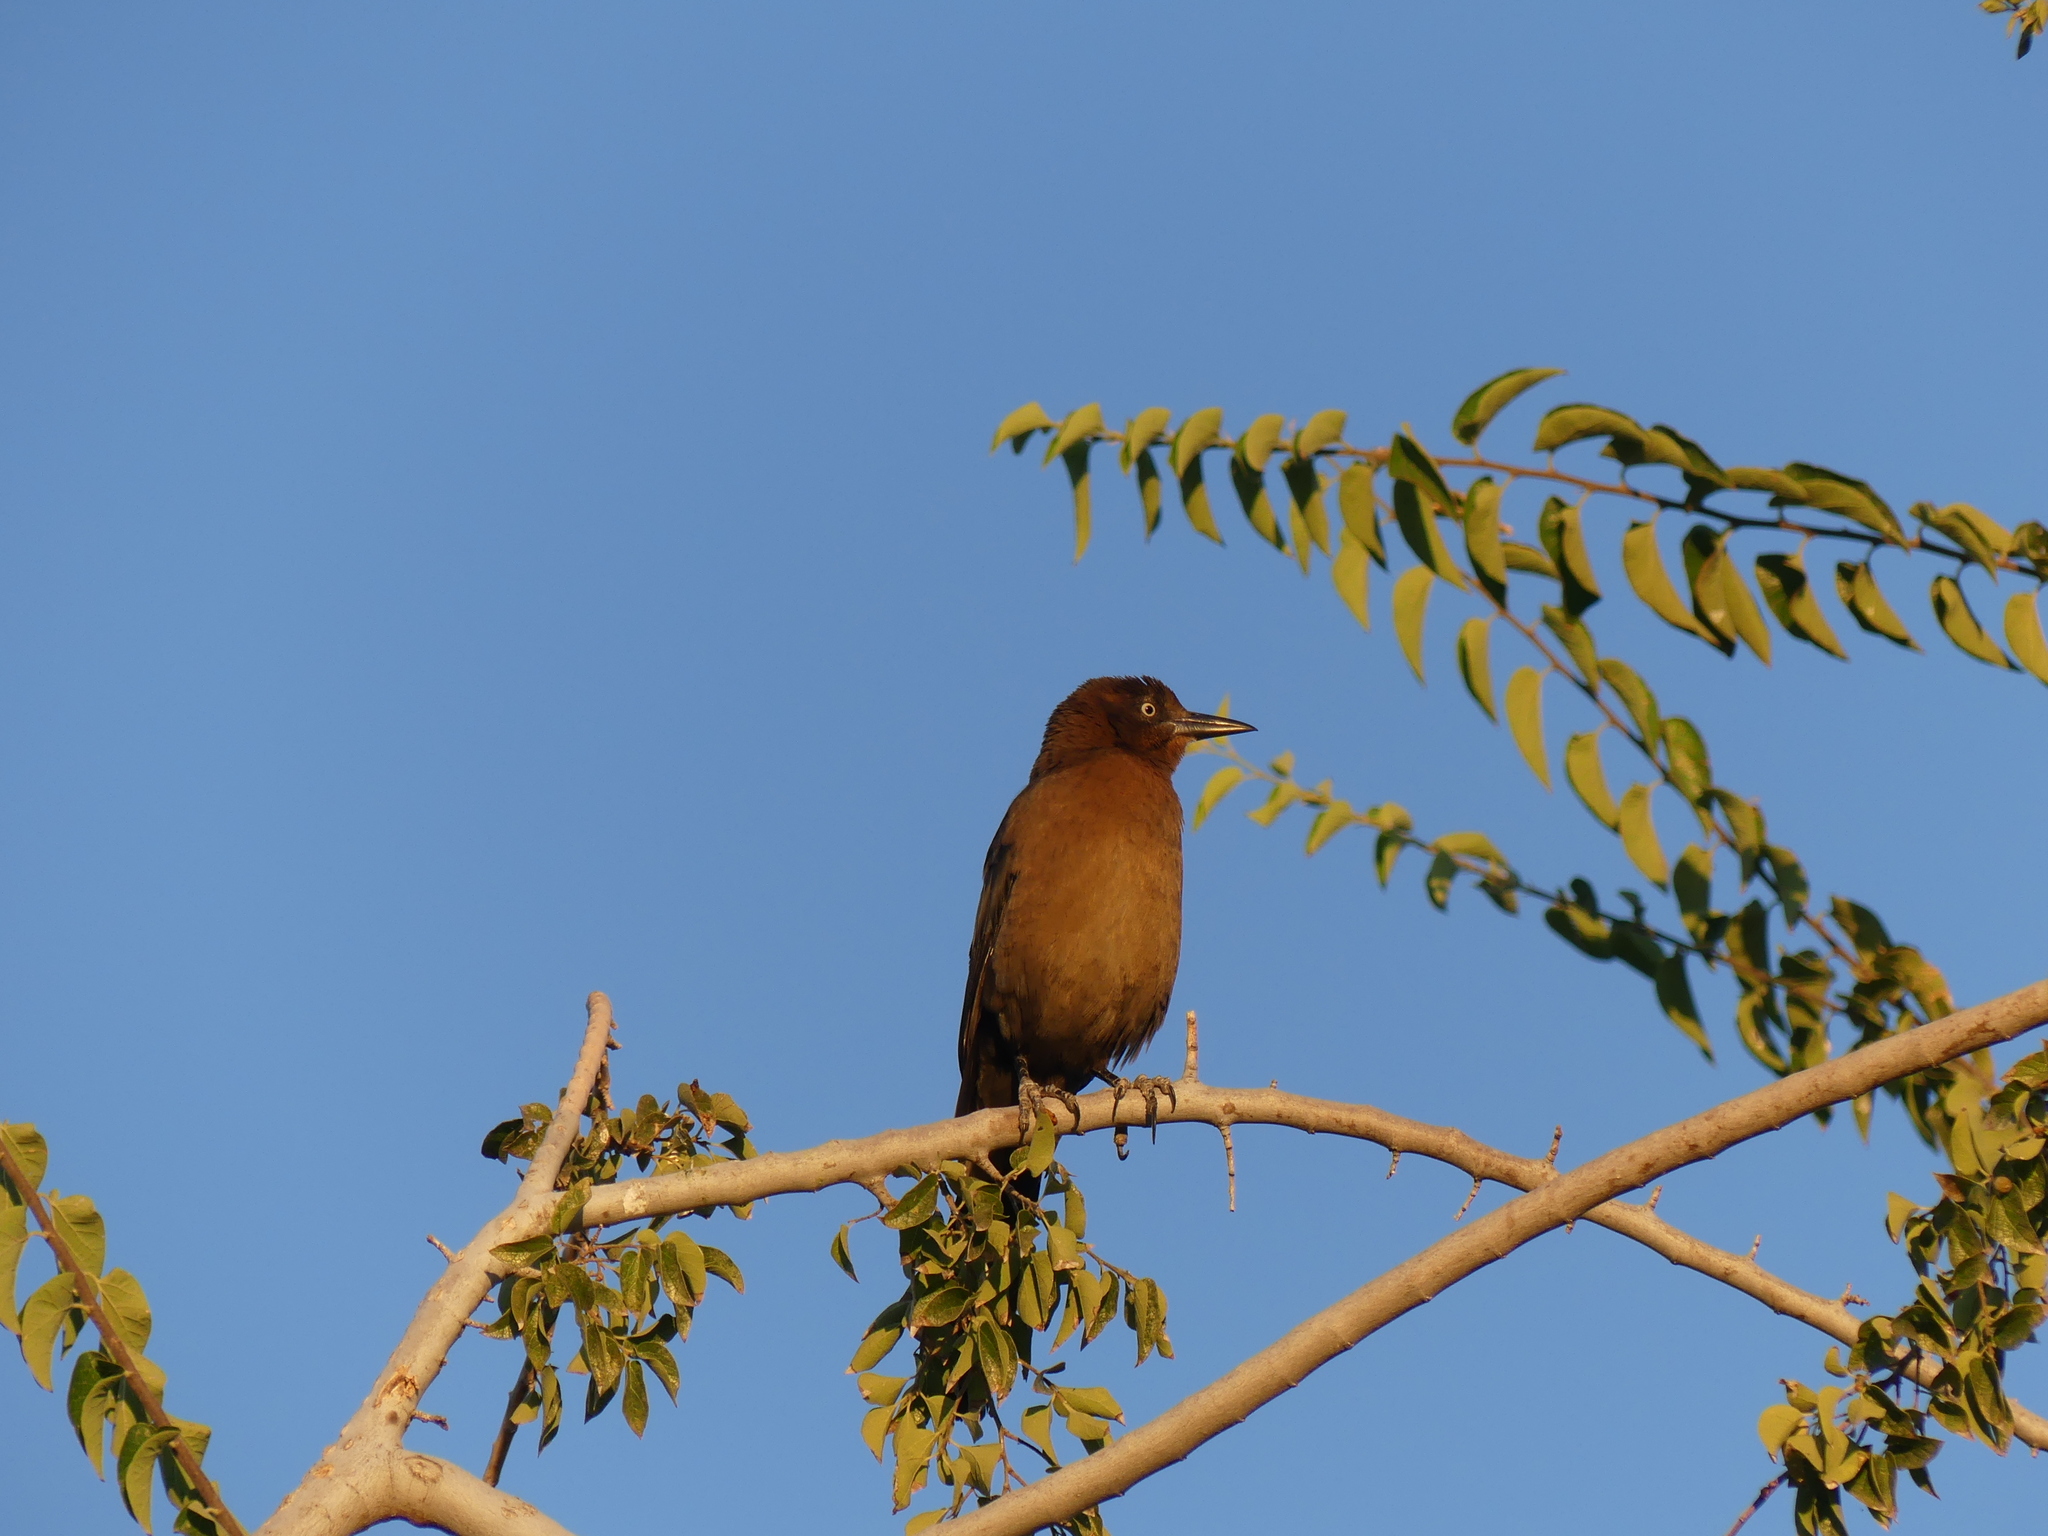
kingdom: Animalia
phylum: Chordata
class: Aves
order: Passeriformes
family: Icteridae
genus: Quiscalus
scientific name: Quiscalus mexicanus
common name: Great-tailed grackle
